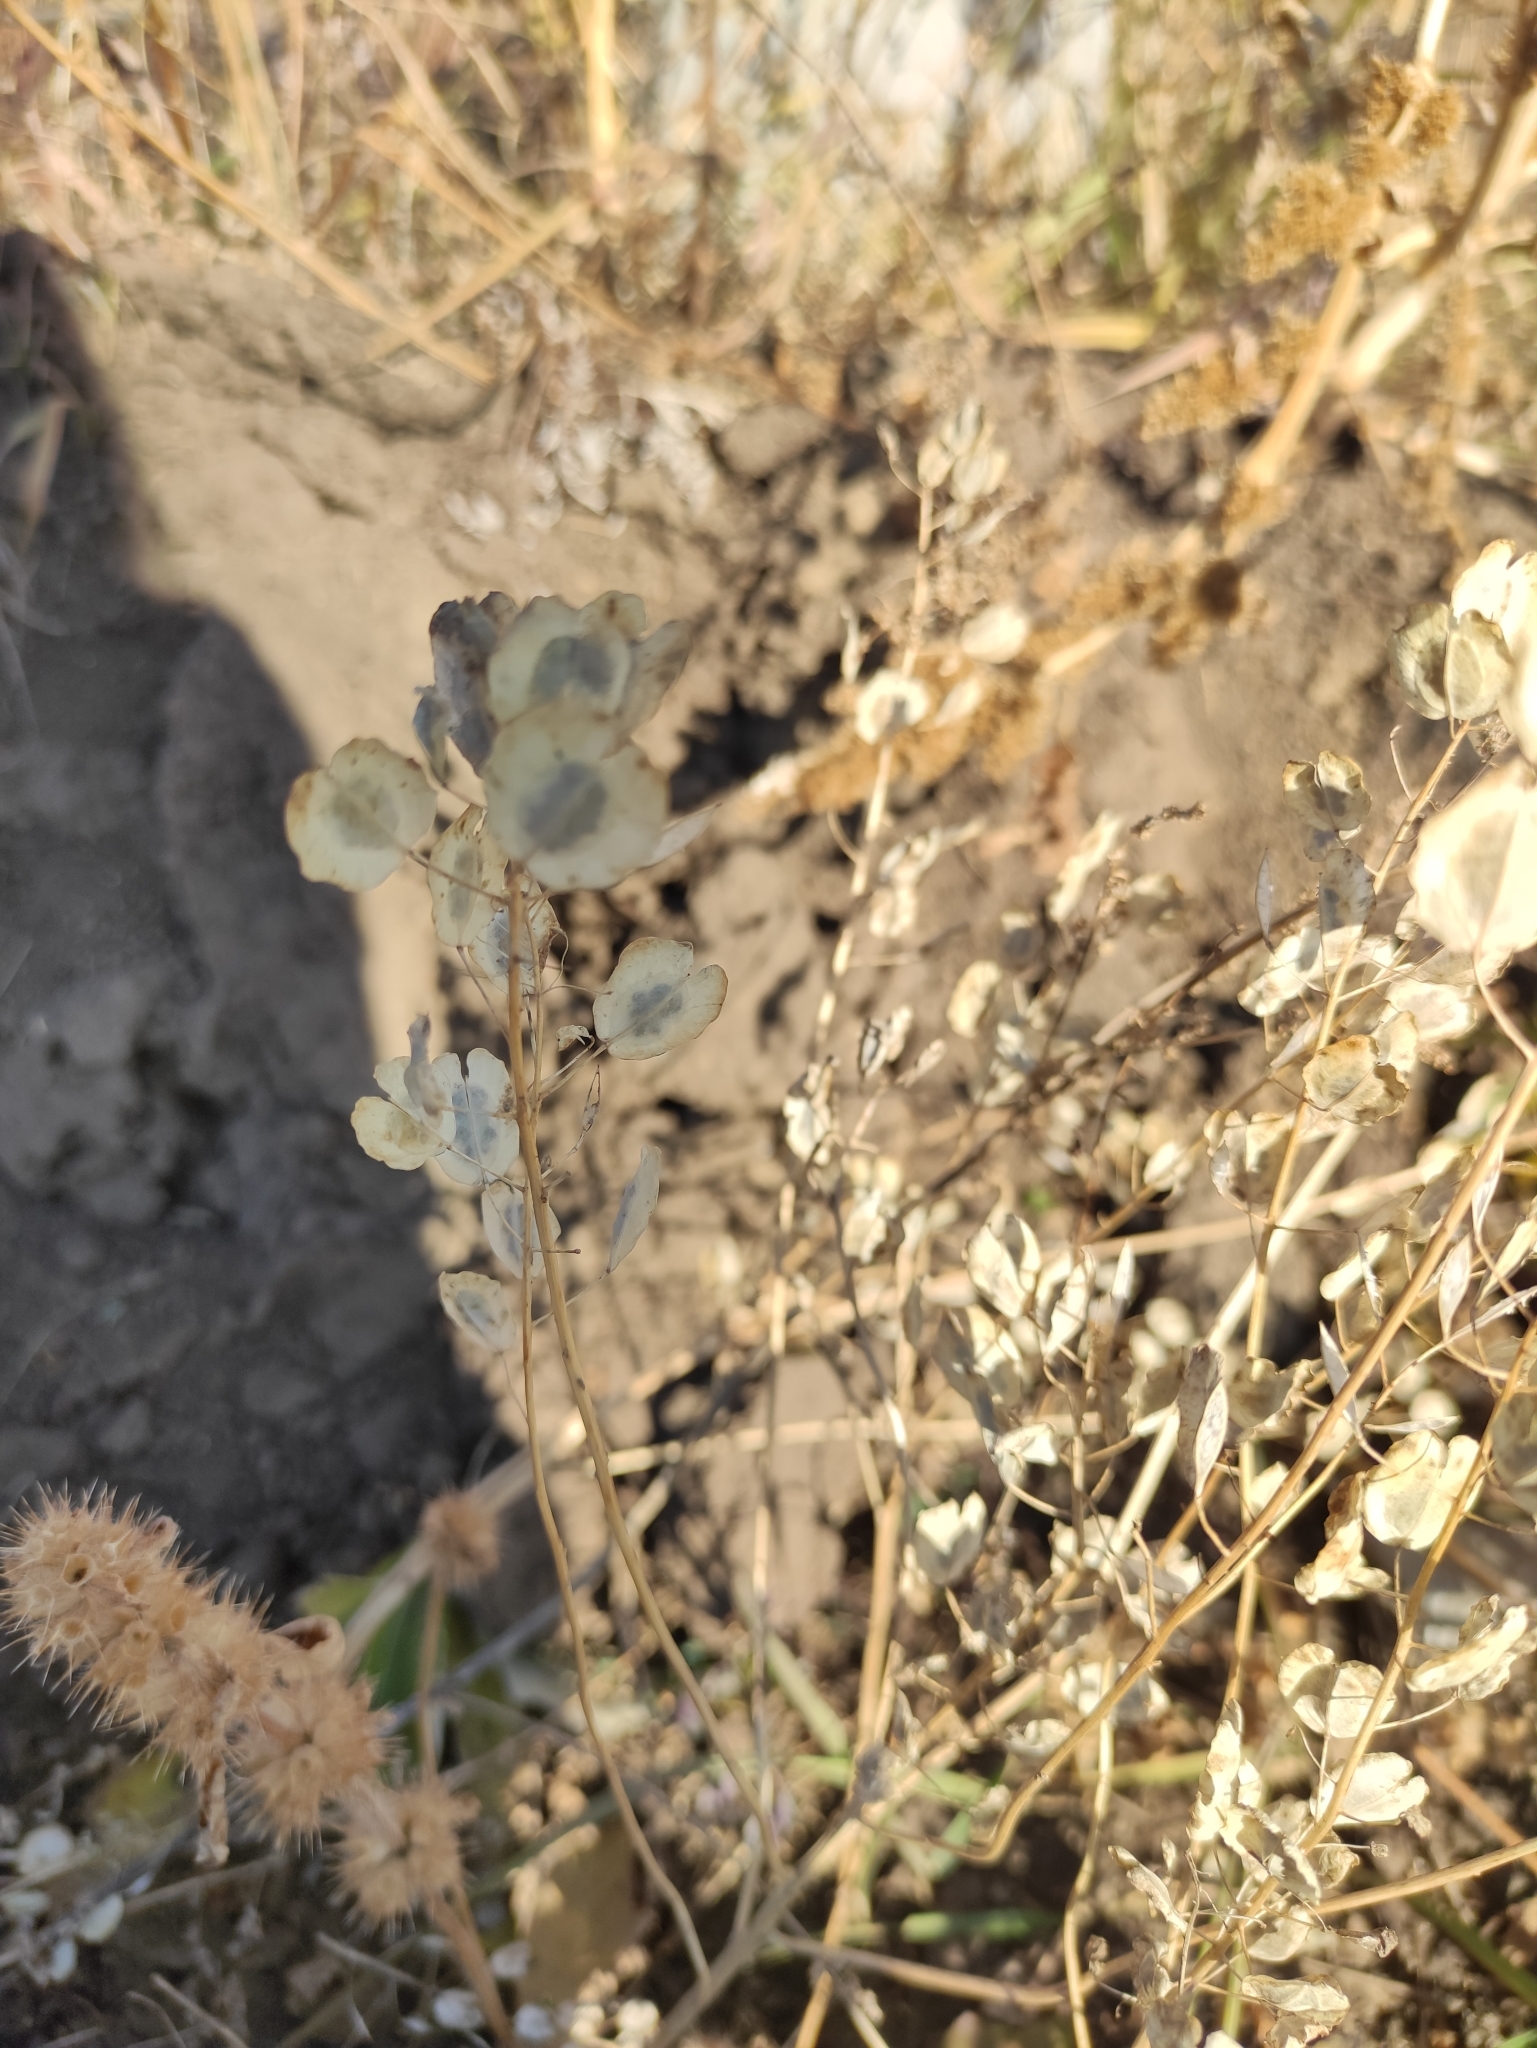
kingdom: Plantae
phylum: Tracheophyta
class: Magnoliopsida
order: Brassicales
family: Brassicaceae
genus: Thlaspi
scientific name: Thlaspi arvense
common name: Field pennycress
